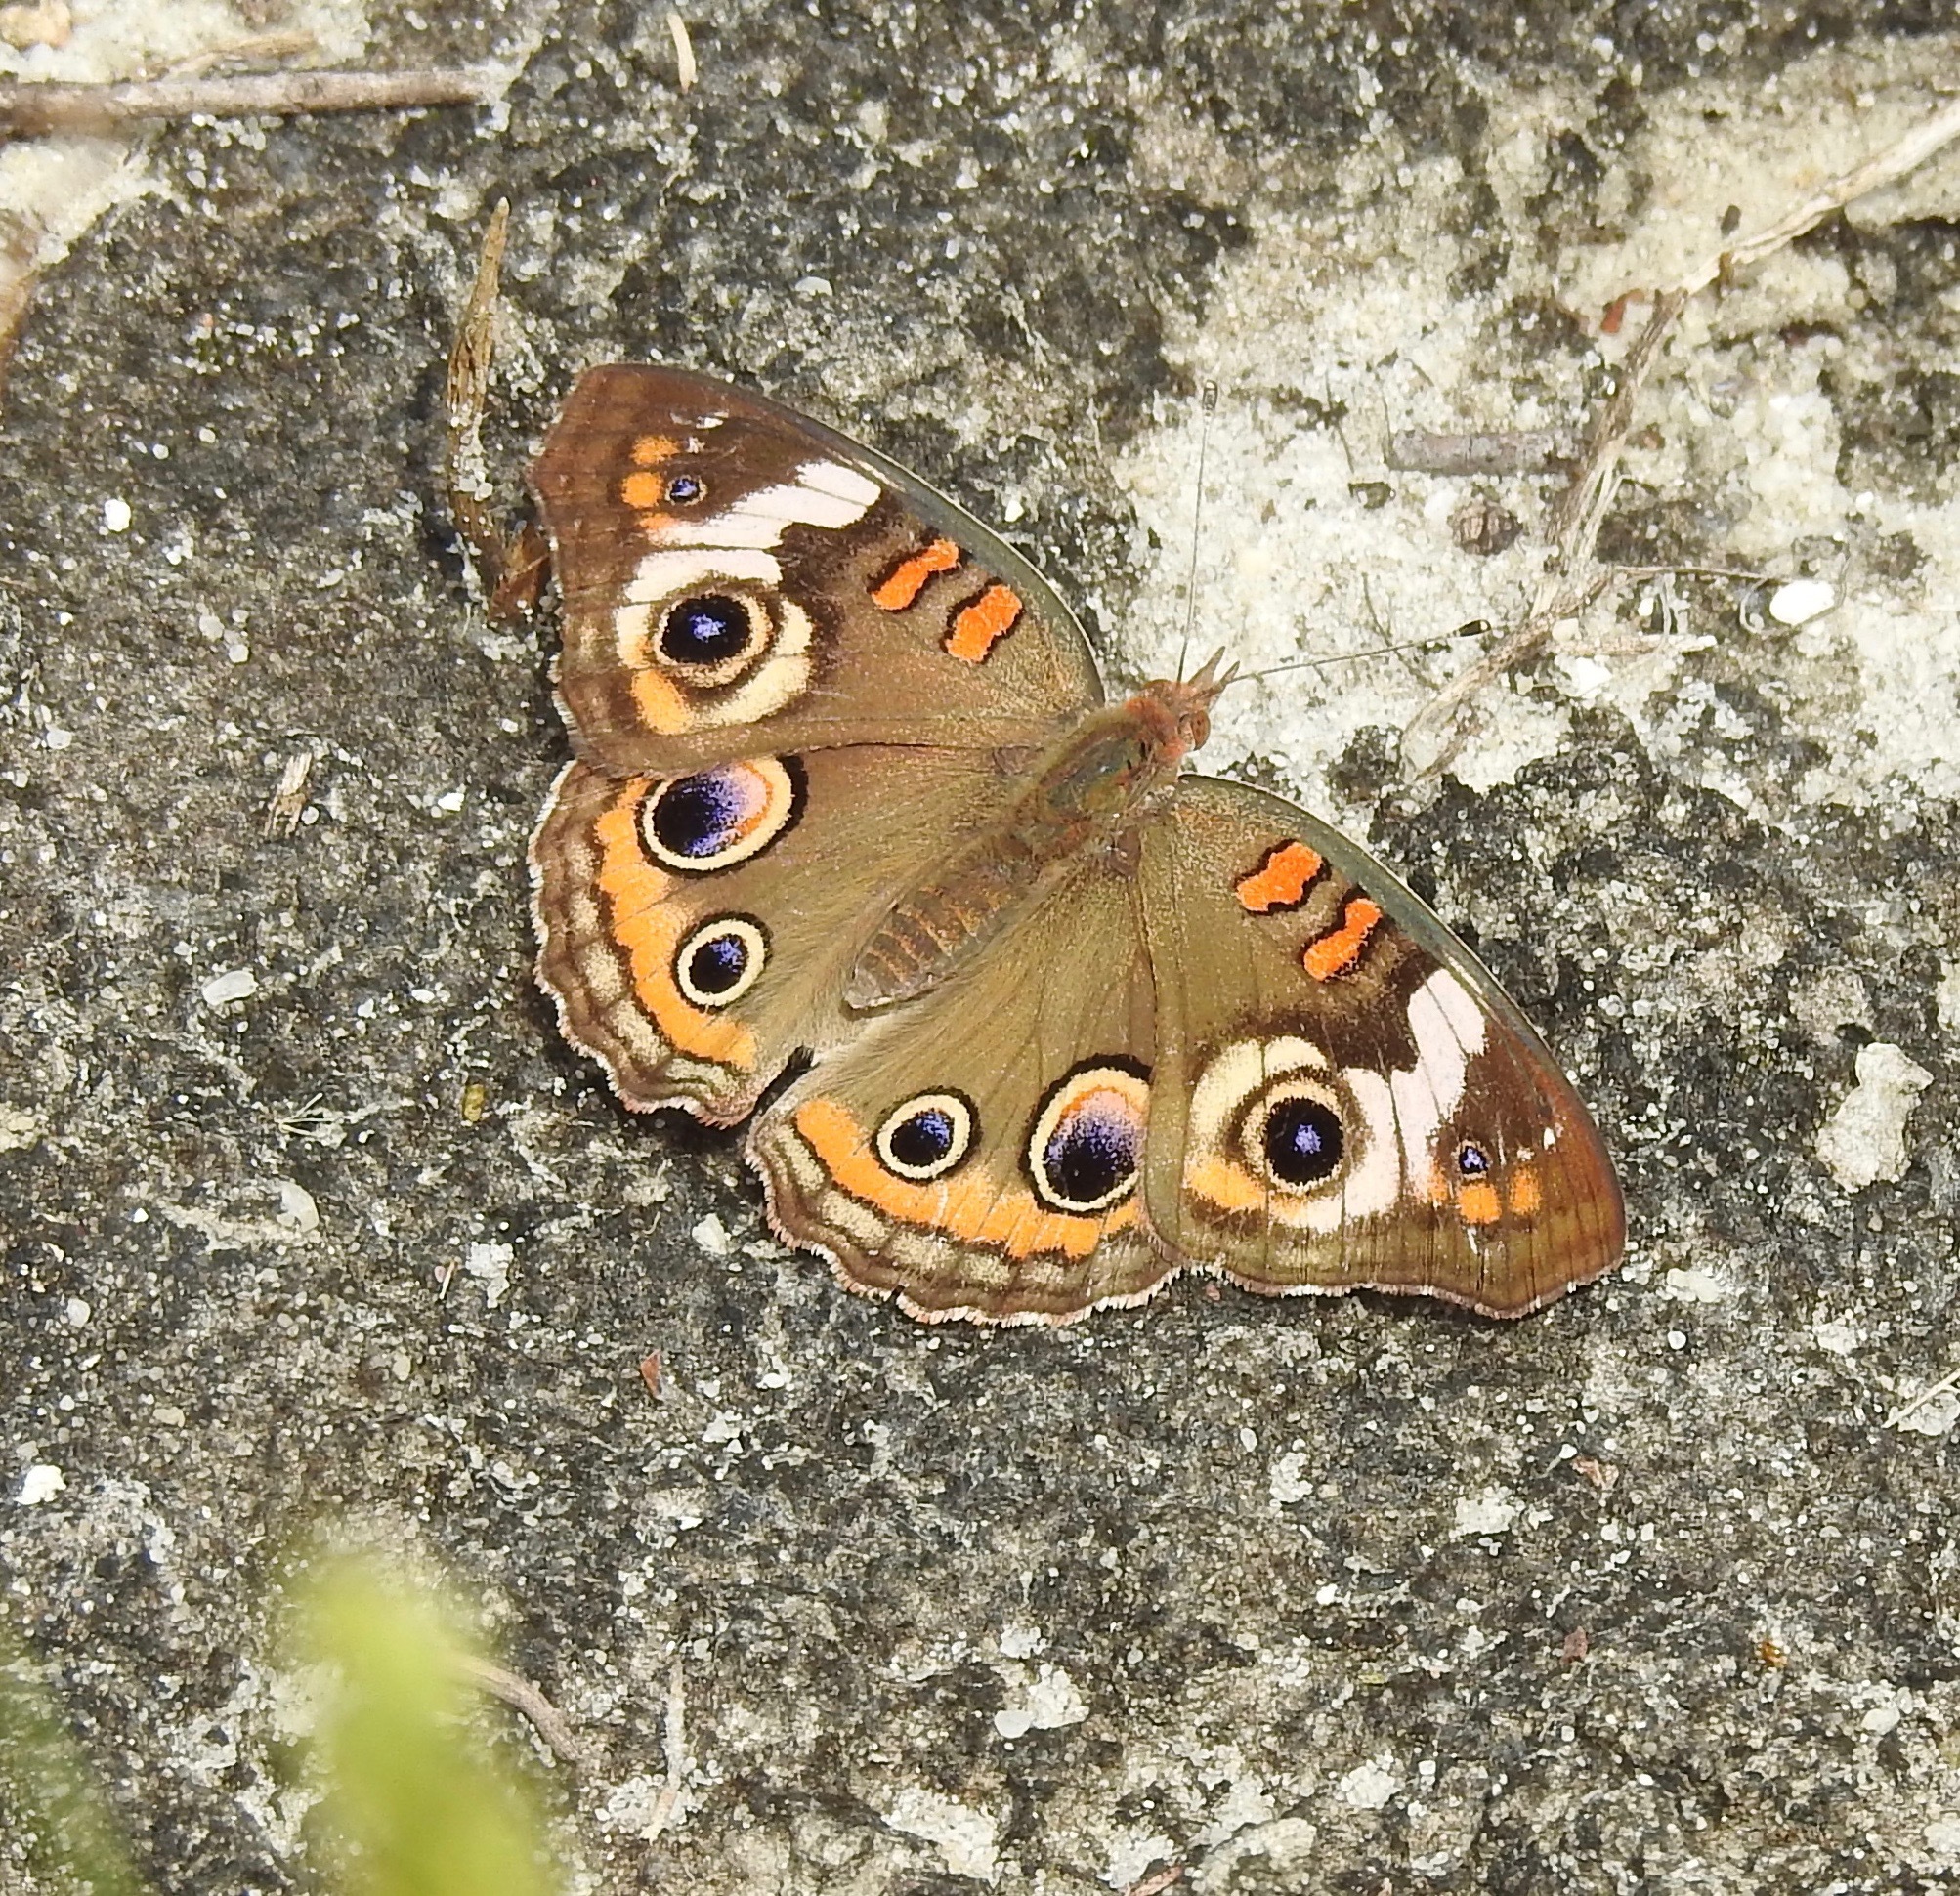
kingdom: Animalia
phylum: Arthropoda
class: Insecta
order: Lepidoptera
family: Nymphalidae
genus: Junonia
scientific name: Junonia coenia
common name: Common buckeye
